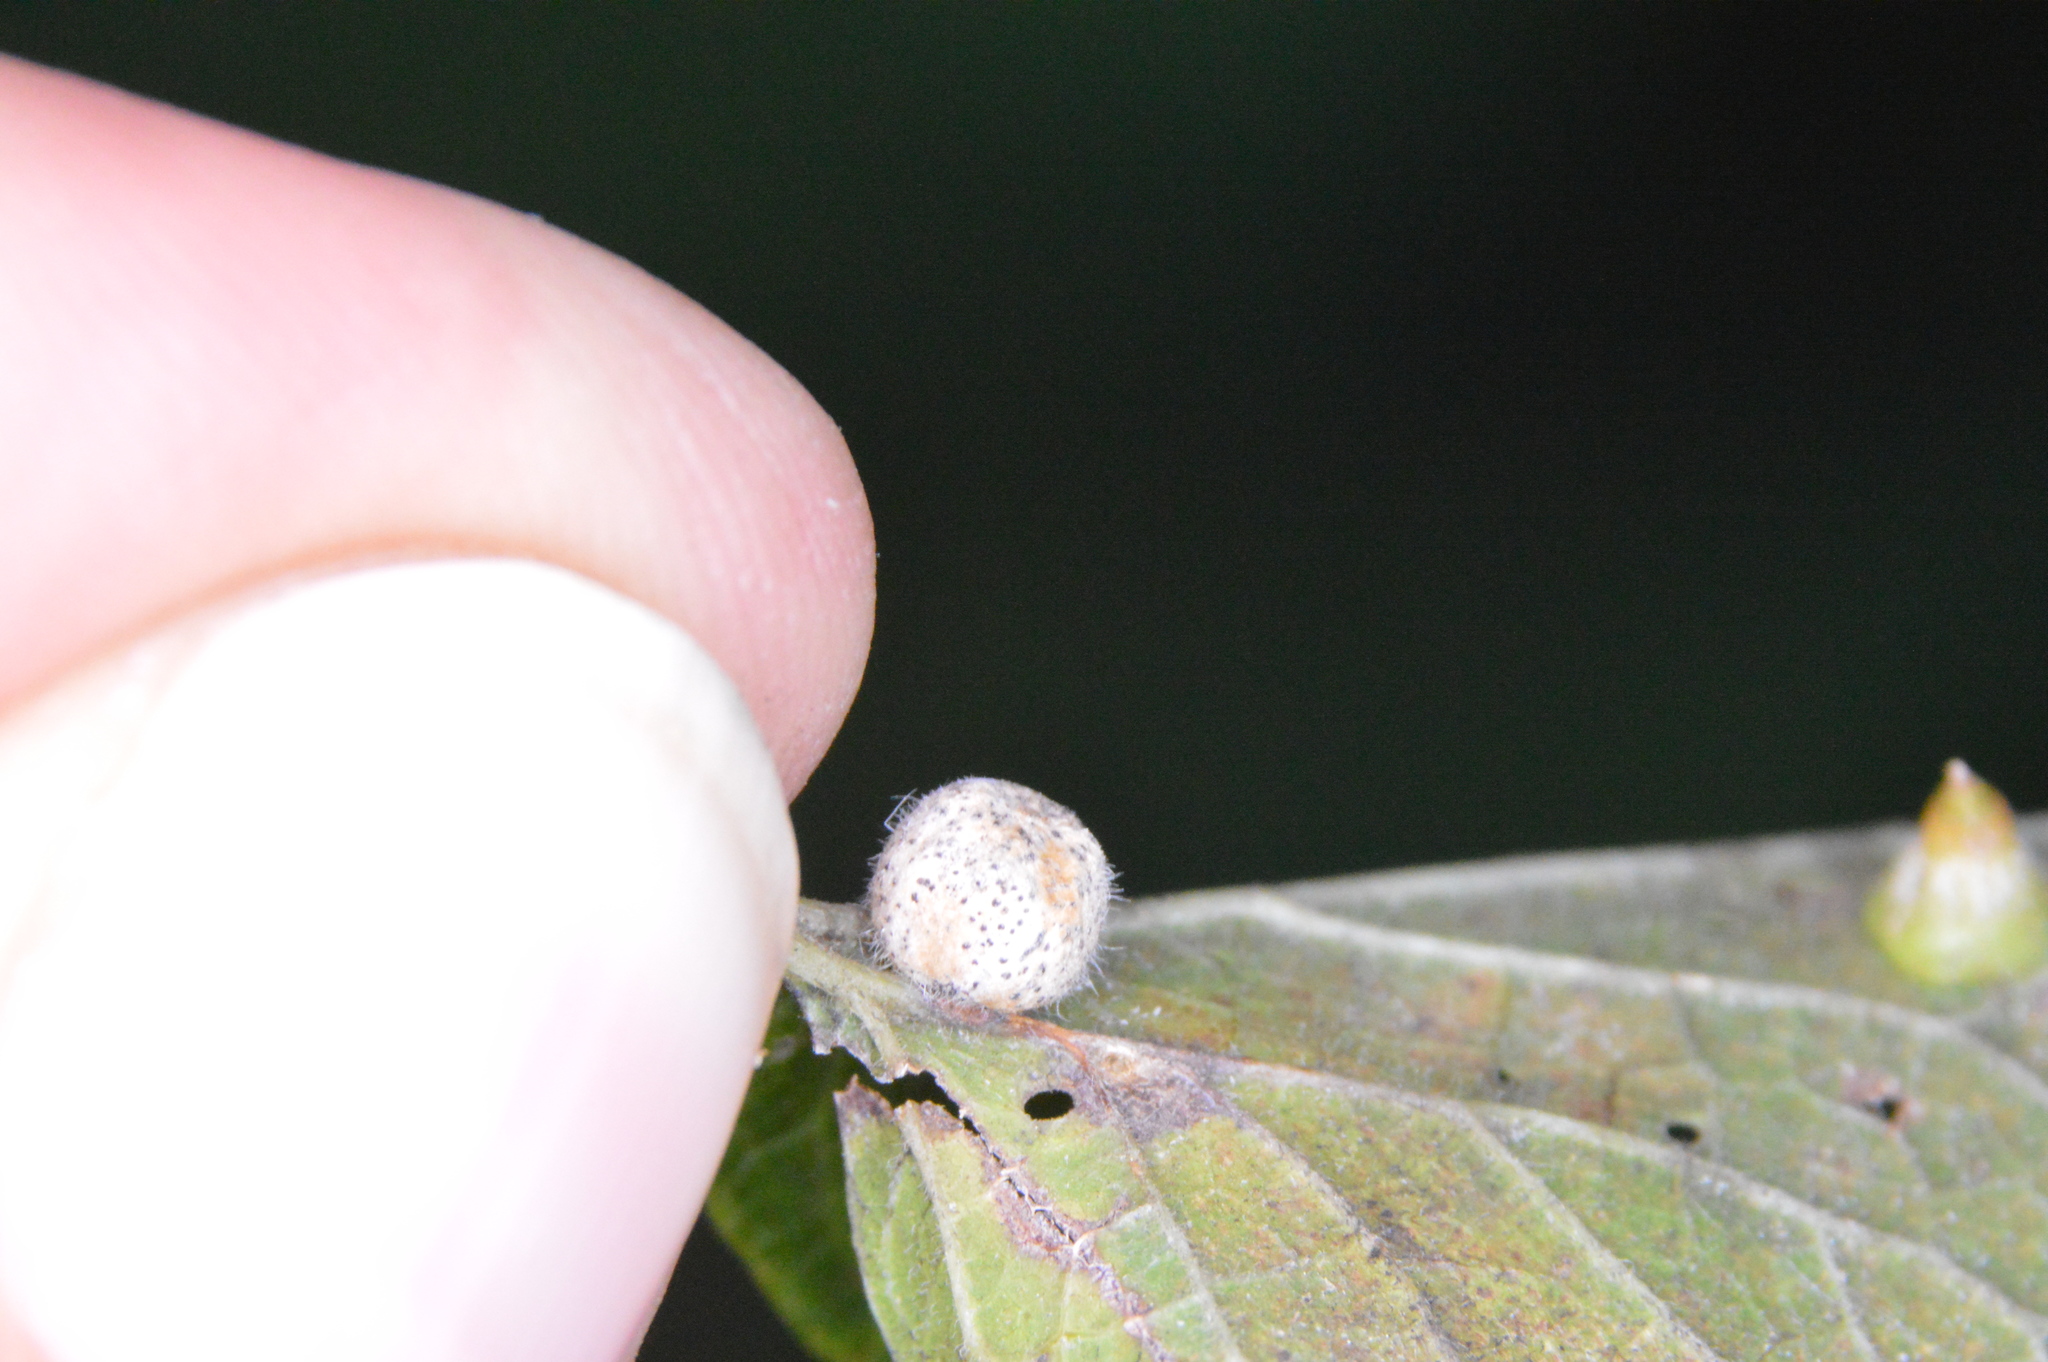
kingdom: Animalia
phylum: Arthropoda
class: Insecta
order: Diptera
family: Cecidomyiidae
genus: Celticecis
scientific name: Celticecis pubescens
